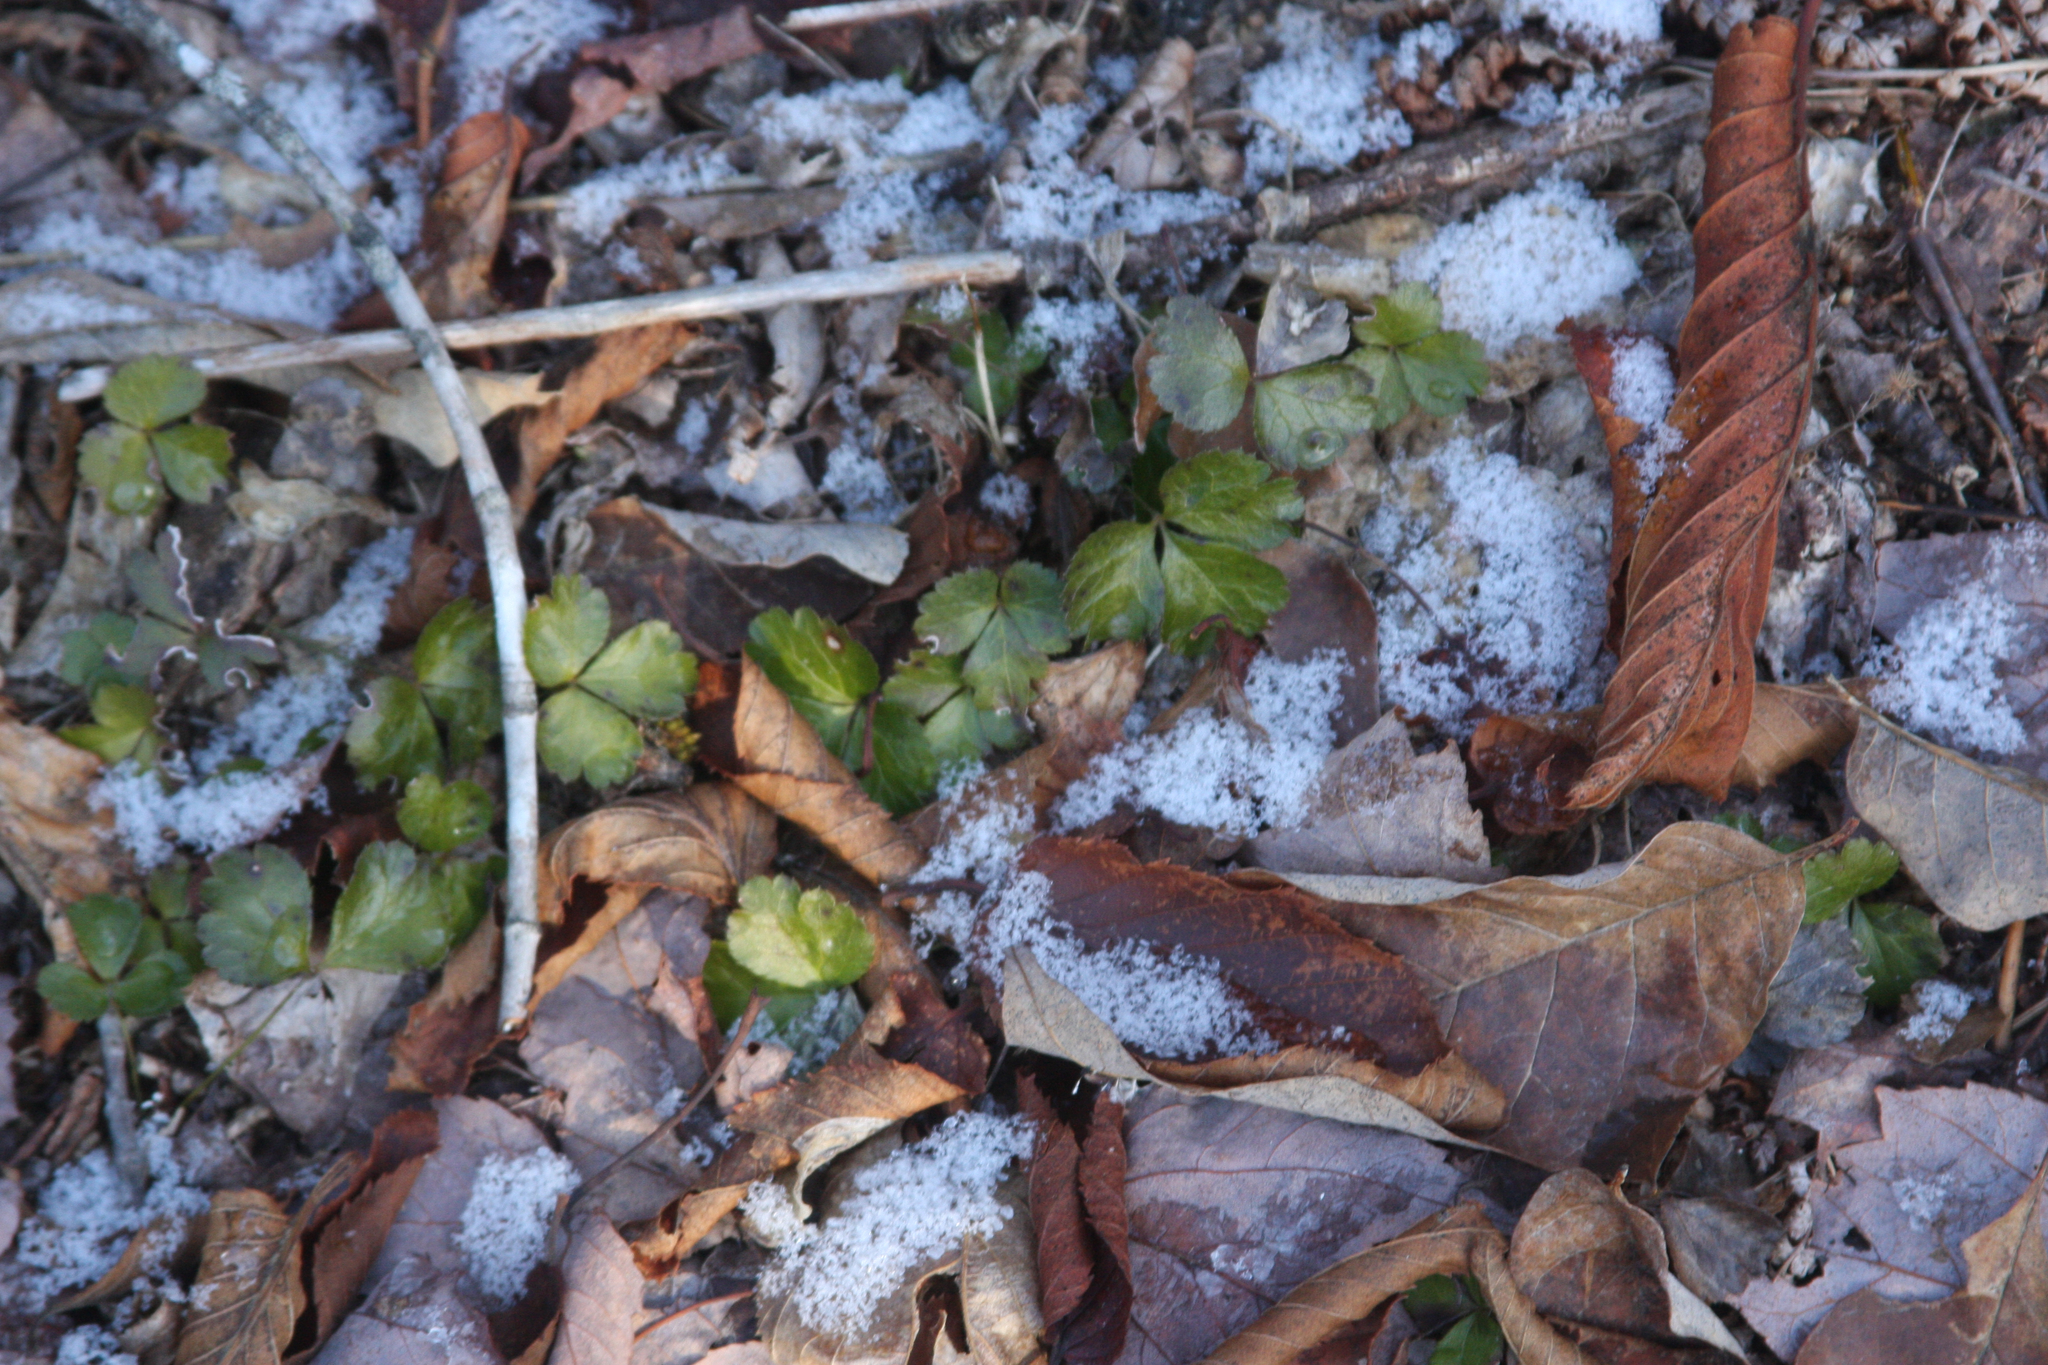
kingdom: Plantae
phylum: Tracheophyta
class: Magnoliopsida
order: Ranunculales
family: Ranunculaceae
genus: Coptis
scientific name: Coptis trifolia
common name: Canker-root
